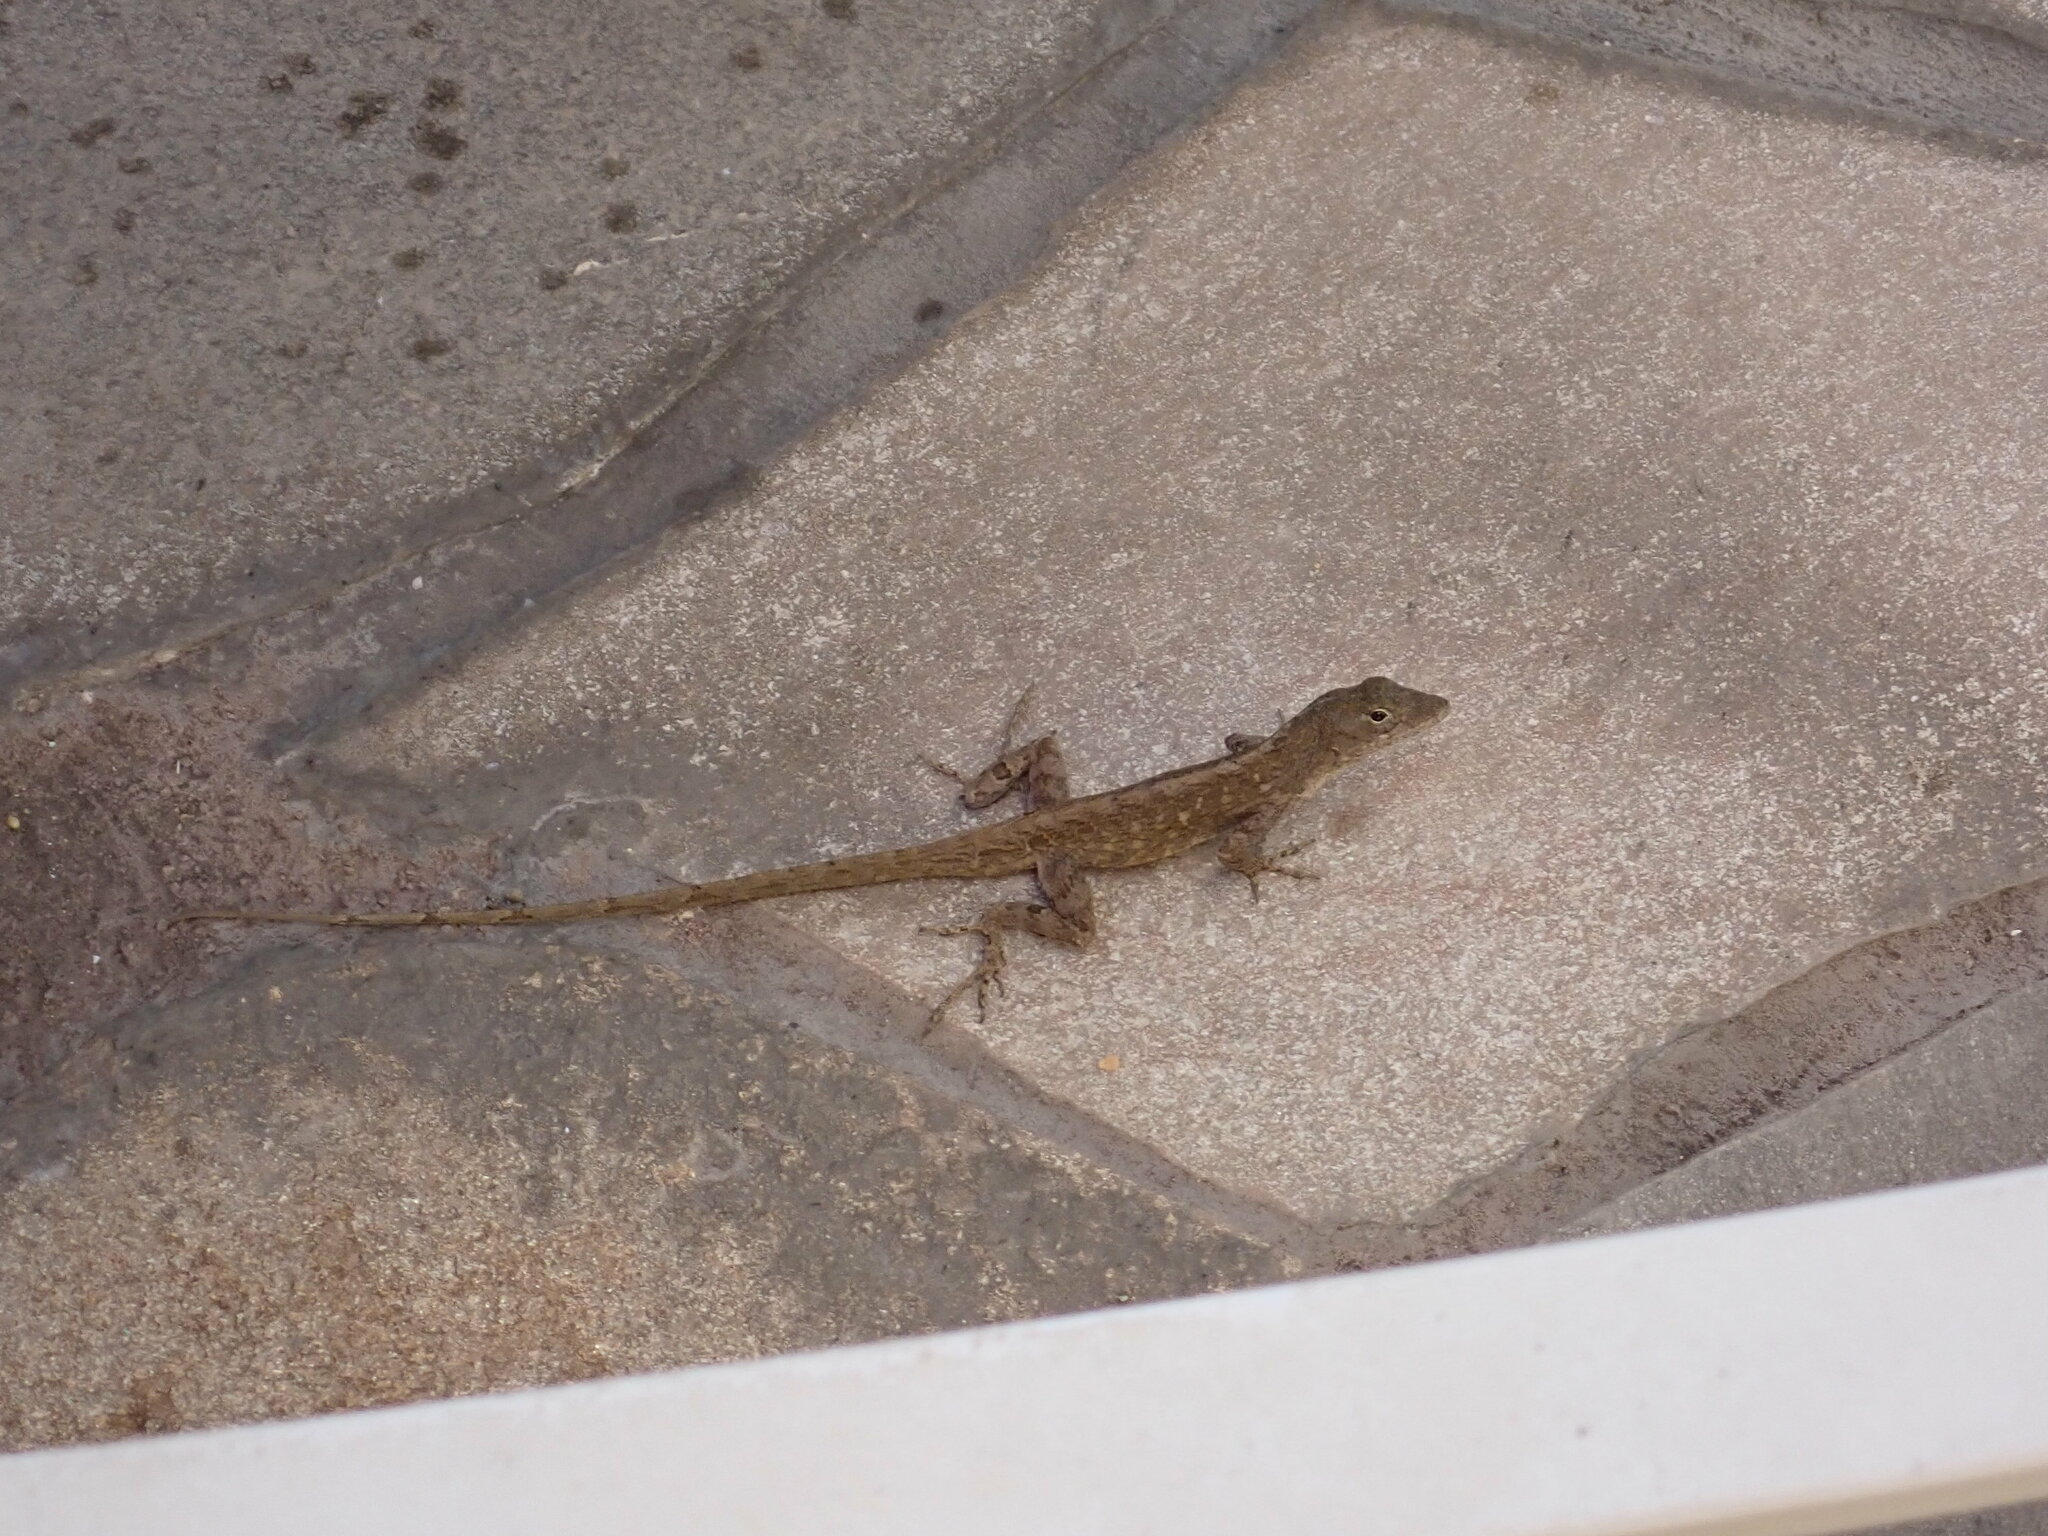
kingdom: Animalia
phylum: Chordata
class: Squamata
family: Dactyloidae
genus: Anolis
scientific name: Anolis sagrei
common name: Brown anole
